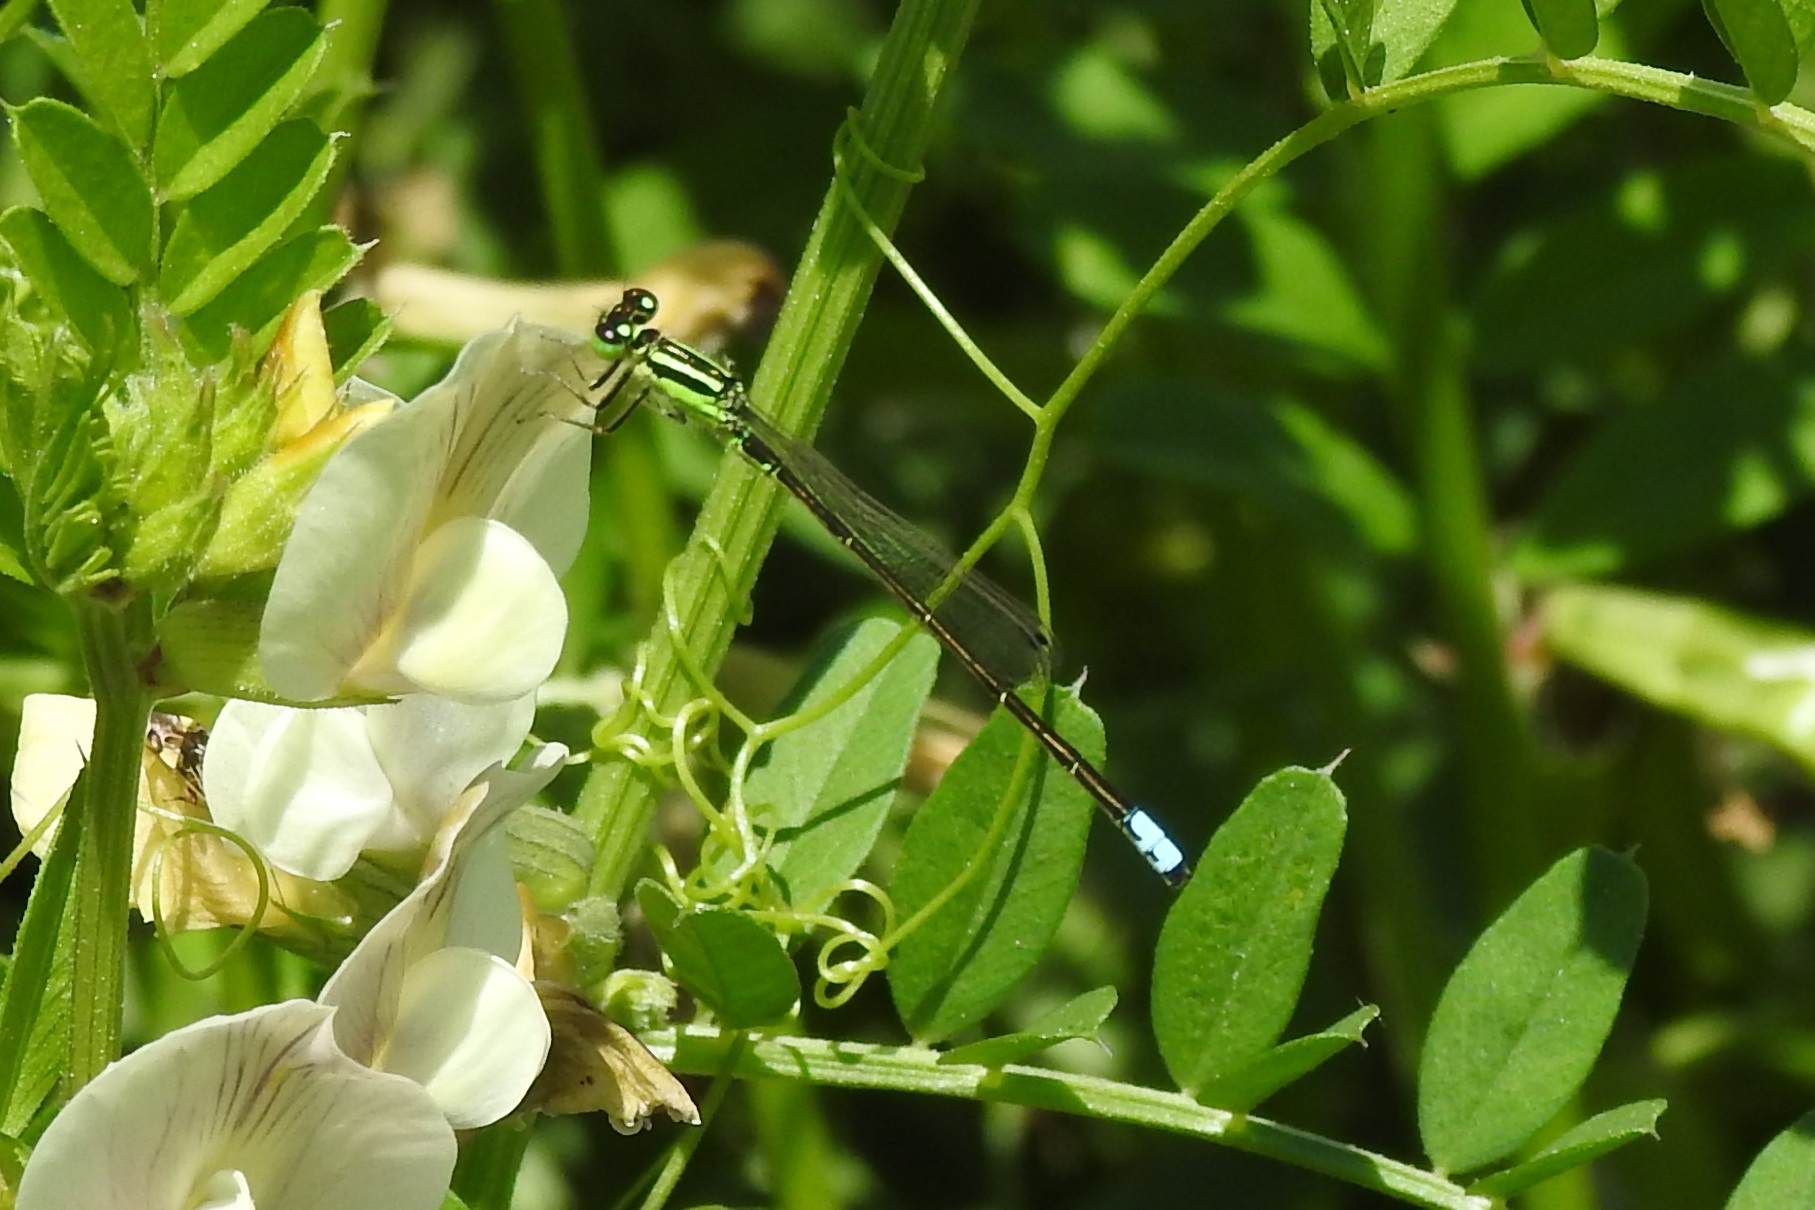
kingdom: Animalia
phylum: Arthropoda
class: Insecta
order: Odonata
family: Coenagrionidae
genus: Ischnura
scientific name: Ischnura verticalis
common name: Eastern forktail
